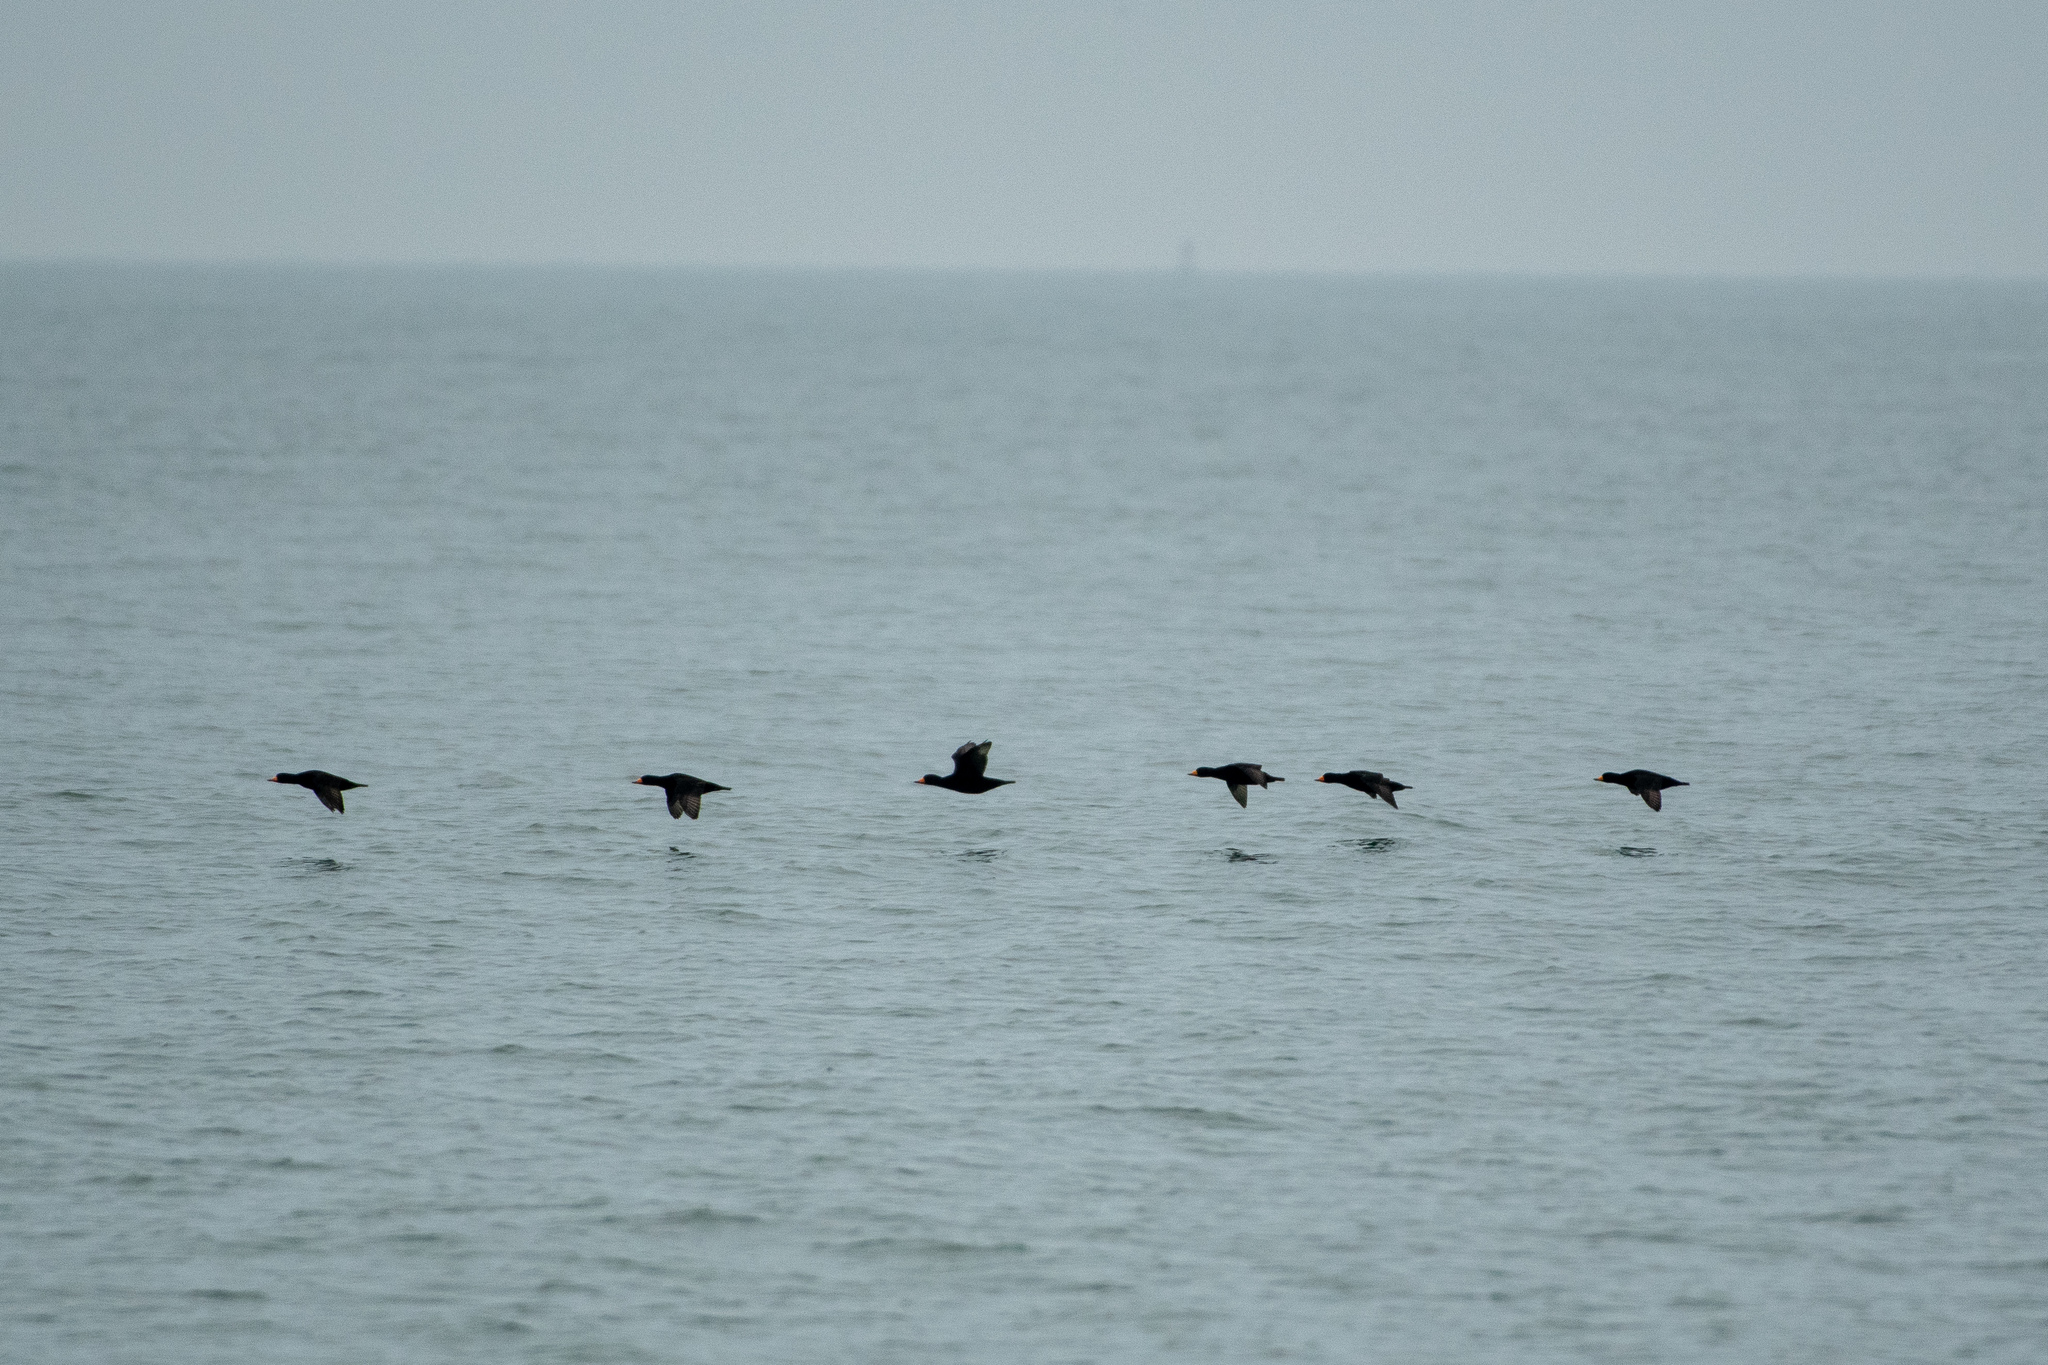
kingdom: Animalia
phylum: Chordata
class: Aves
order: Anseriformes
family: Anatidae
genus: Melanitta
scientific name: Melanitta americana
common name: Black scoter
